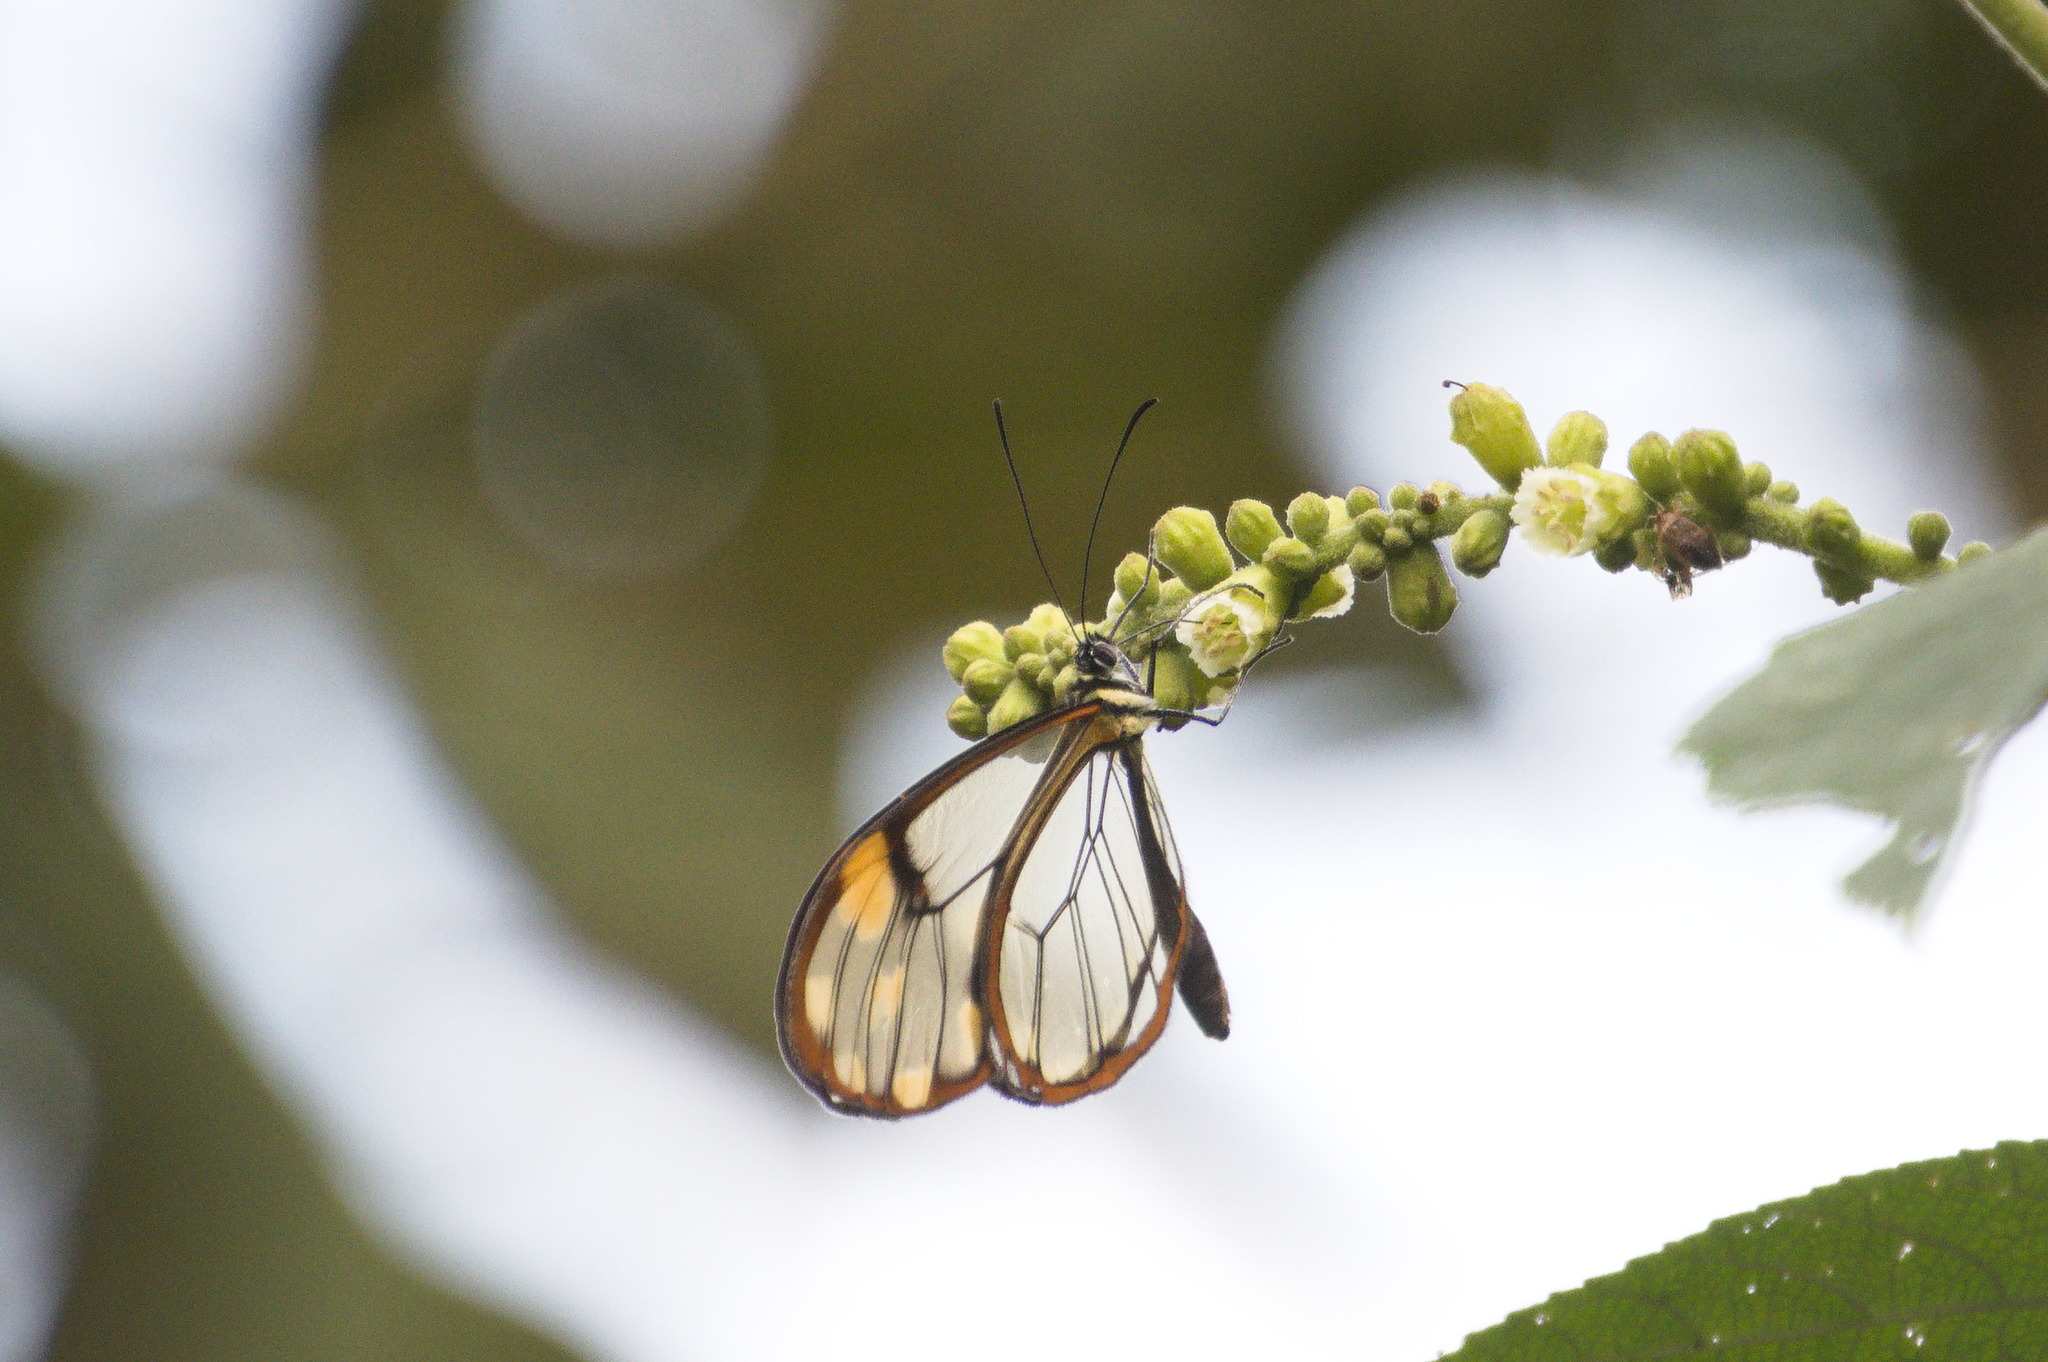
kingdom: Animalia
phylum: Arthropoda
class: Insecta
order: Lepidoptera
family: Nymphalidae
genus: Hypomenitis
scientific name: Hypomenitis
